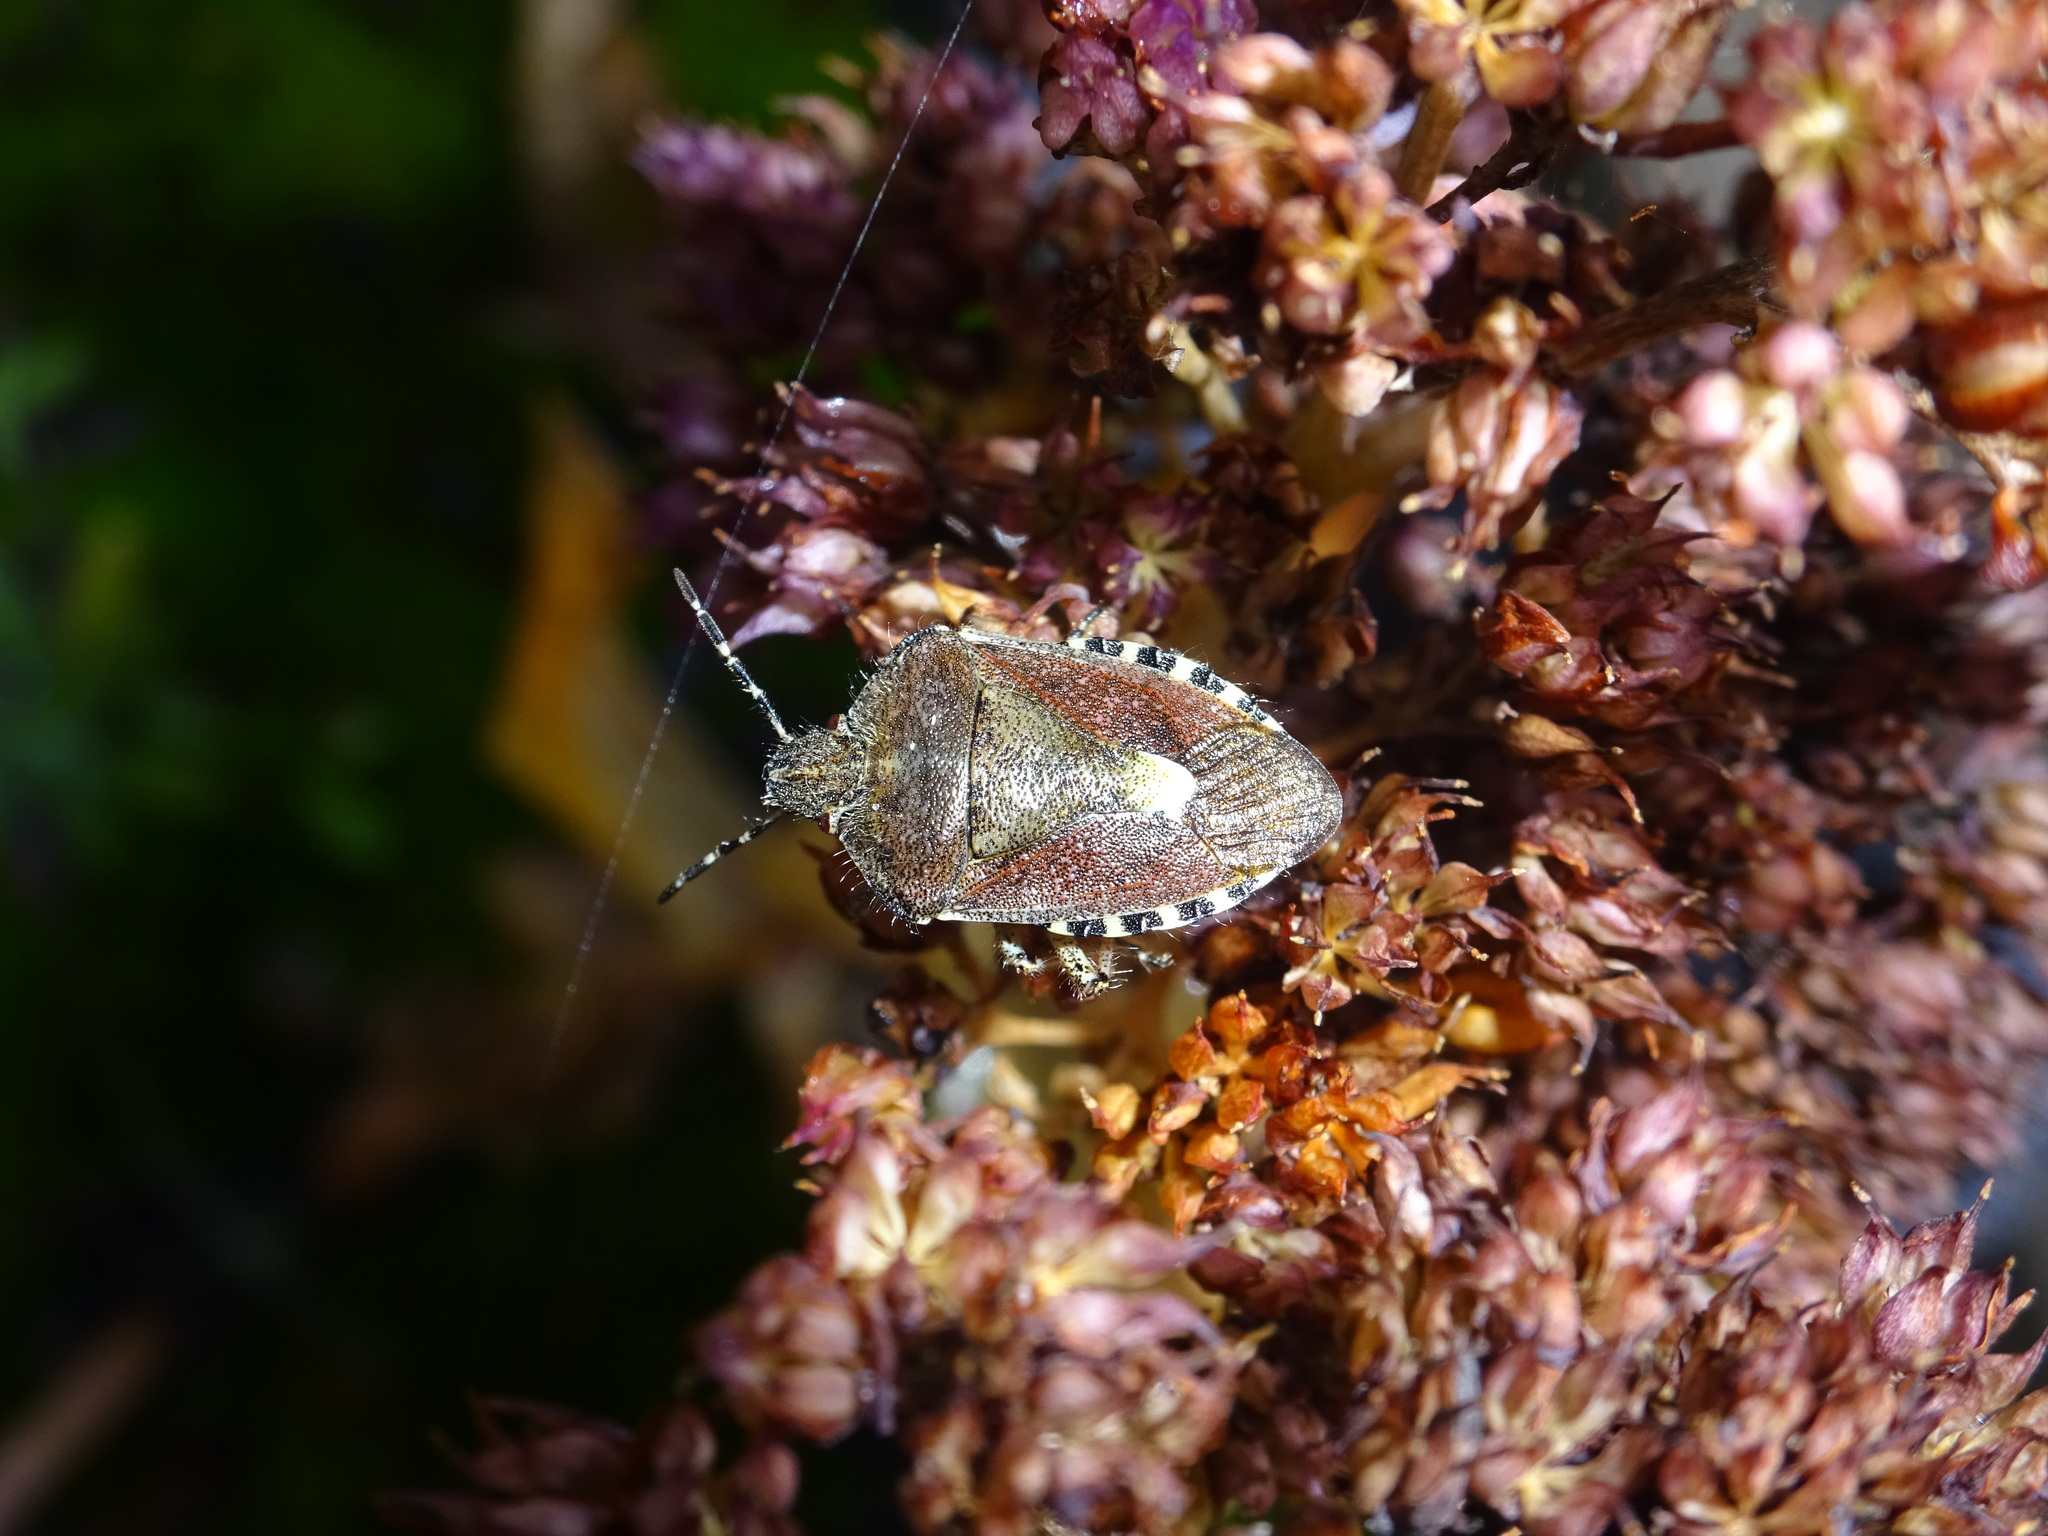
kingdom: Animalia
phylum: Arthropoda
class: Insecta
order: Hemiptera
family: Pentatomidae
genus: Dolycoris
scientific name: Dolycoris baccarum
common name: Sloe bug
